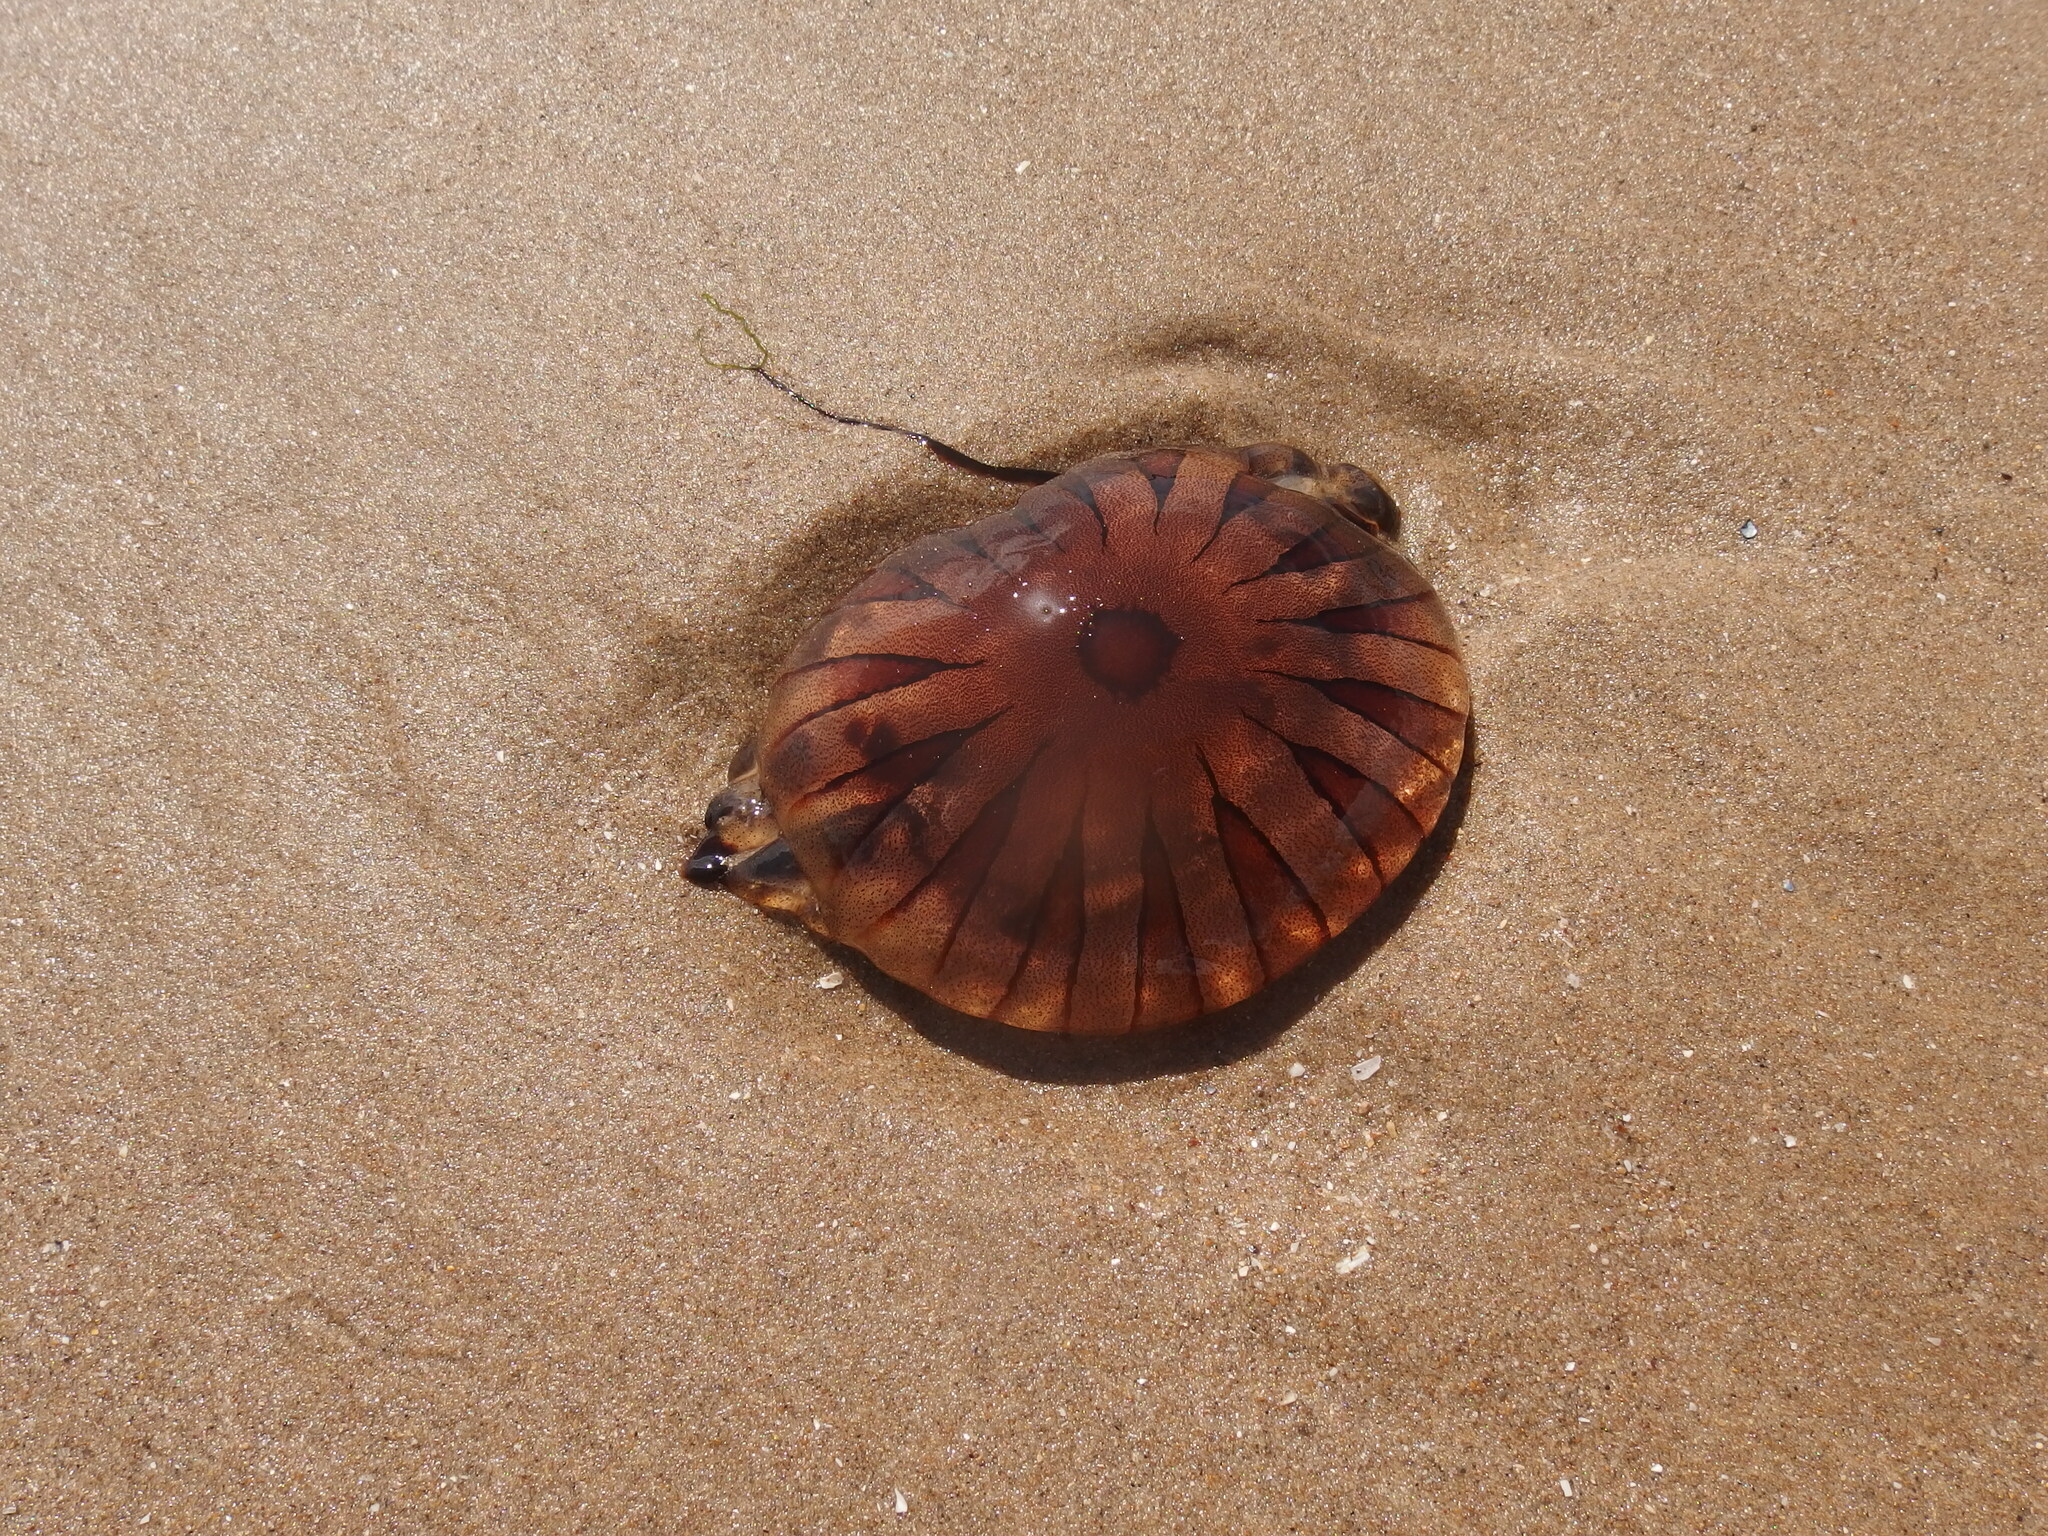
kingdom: Animalia
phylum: Cnidaria
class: Scyphozoa
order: Semaeostomeae
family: Pelagiidae
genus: Chrysaora
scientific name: Chrysaora hysoscella
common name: Compass jellyfish
